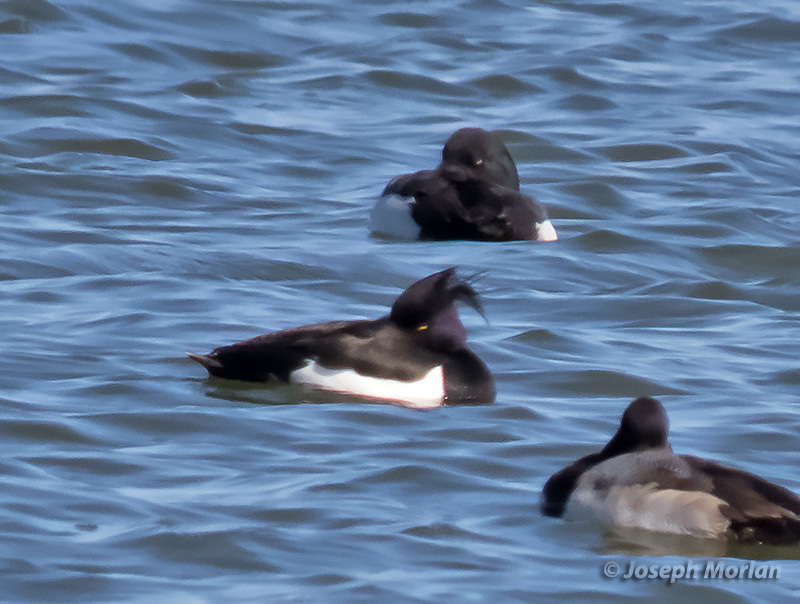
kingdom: Animalia
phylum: Chordata
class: Aves
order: Anseriformes
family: Anatidae
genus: Aythya
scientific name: Aythya fuligula
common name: Tufted duck
